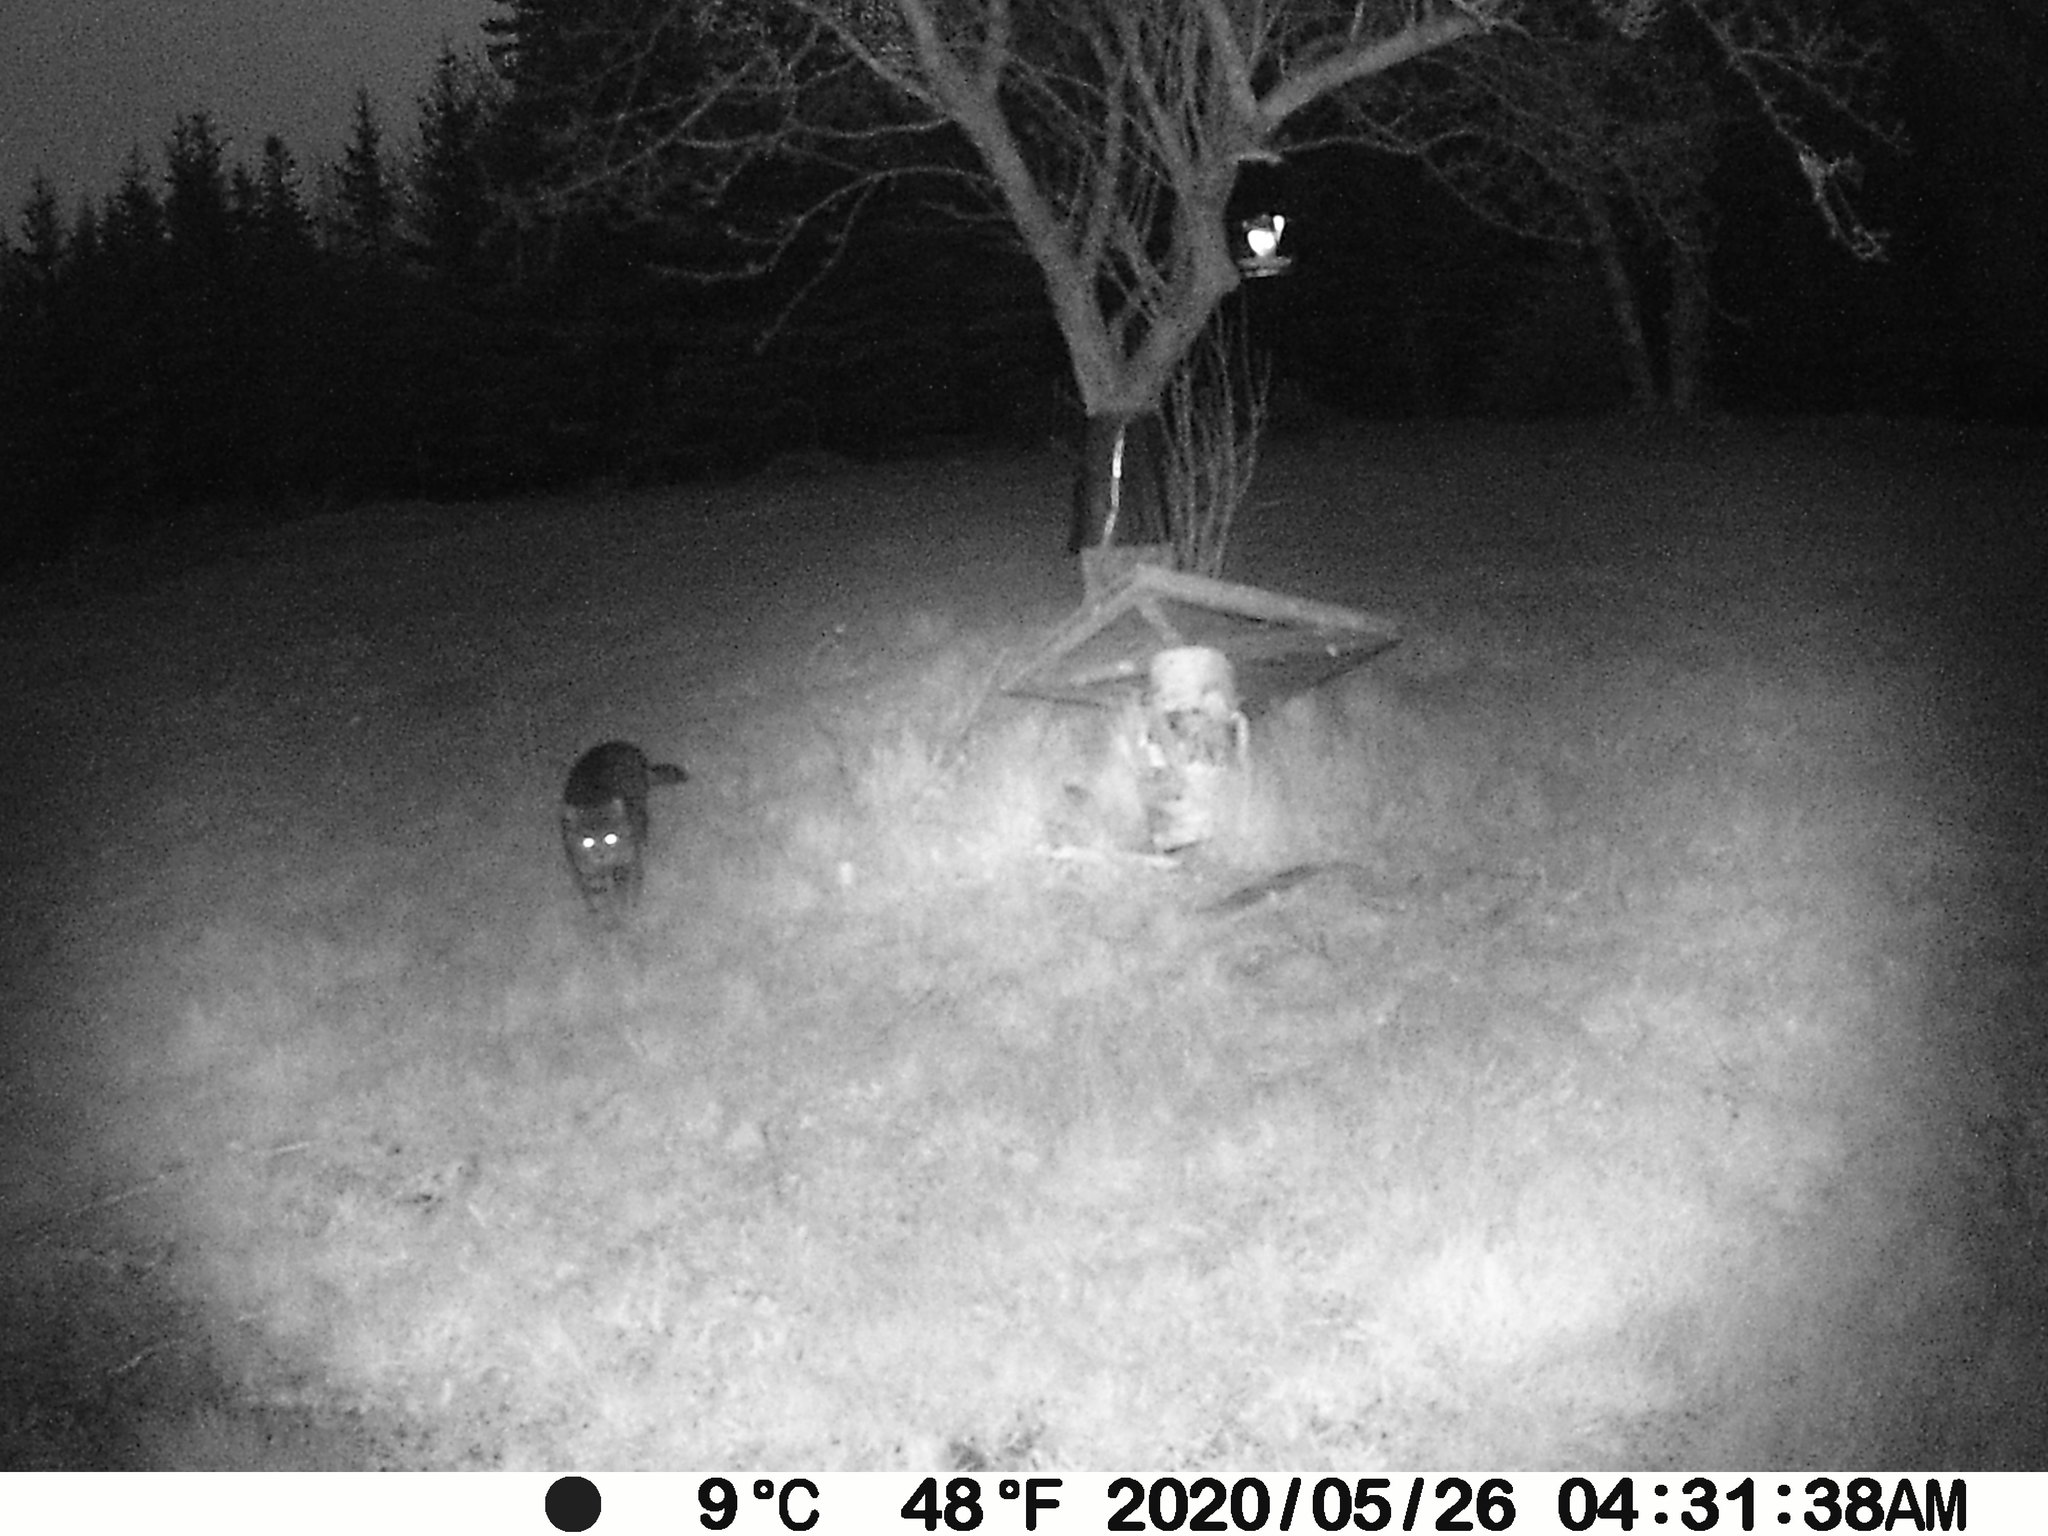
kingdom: Animalia
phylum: Chordata
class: Mammalia
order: Carnivora
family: Felidae
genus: Felis
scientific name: Felis catus
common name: Domestic cat
